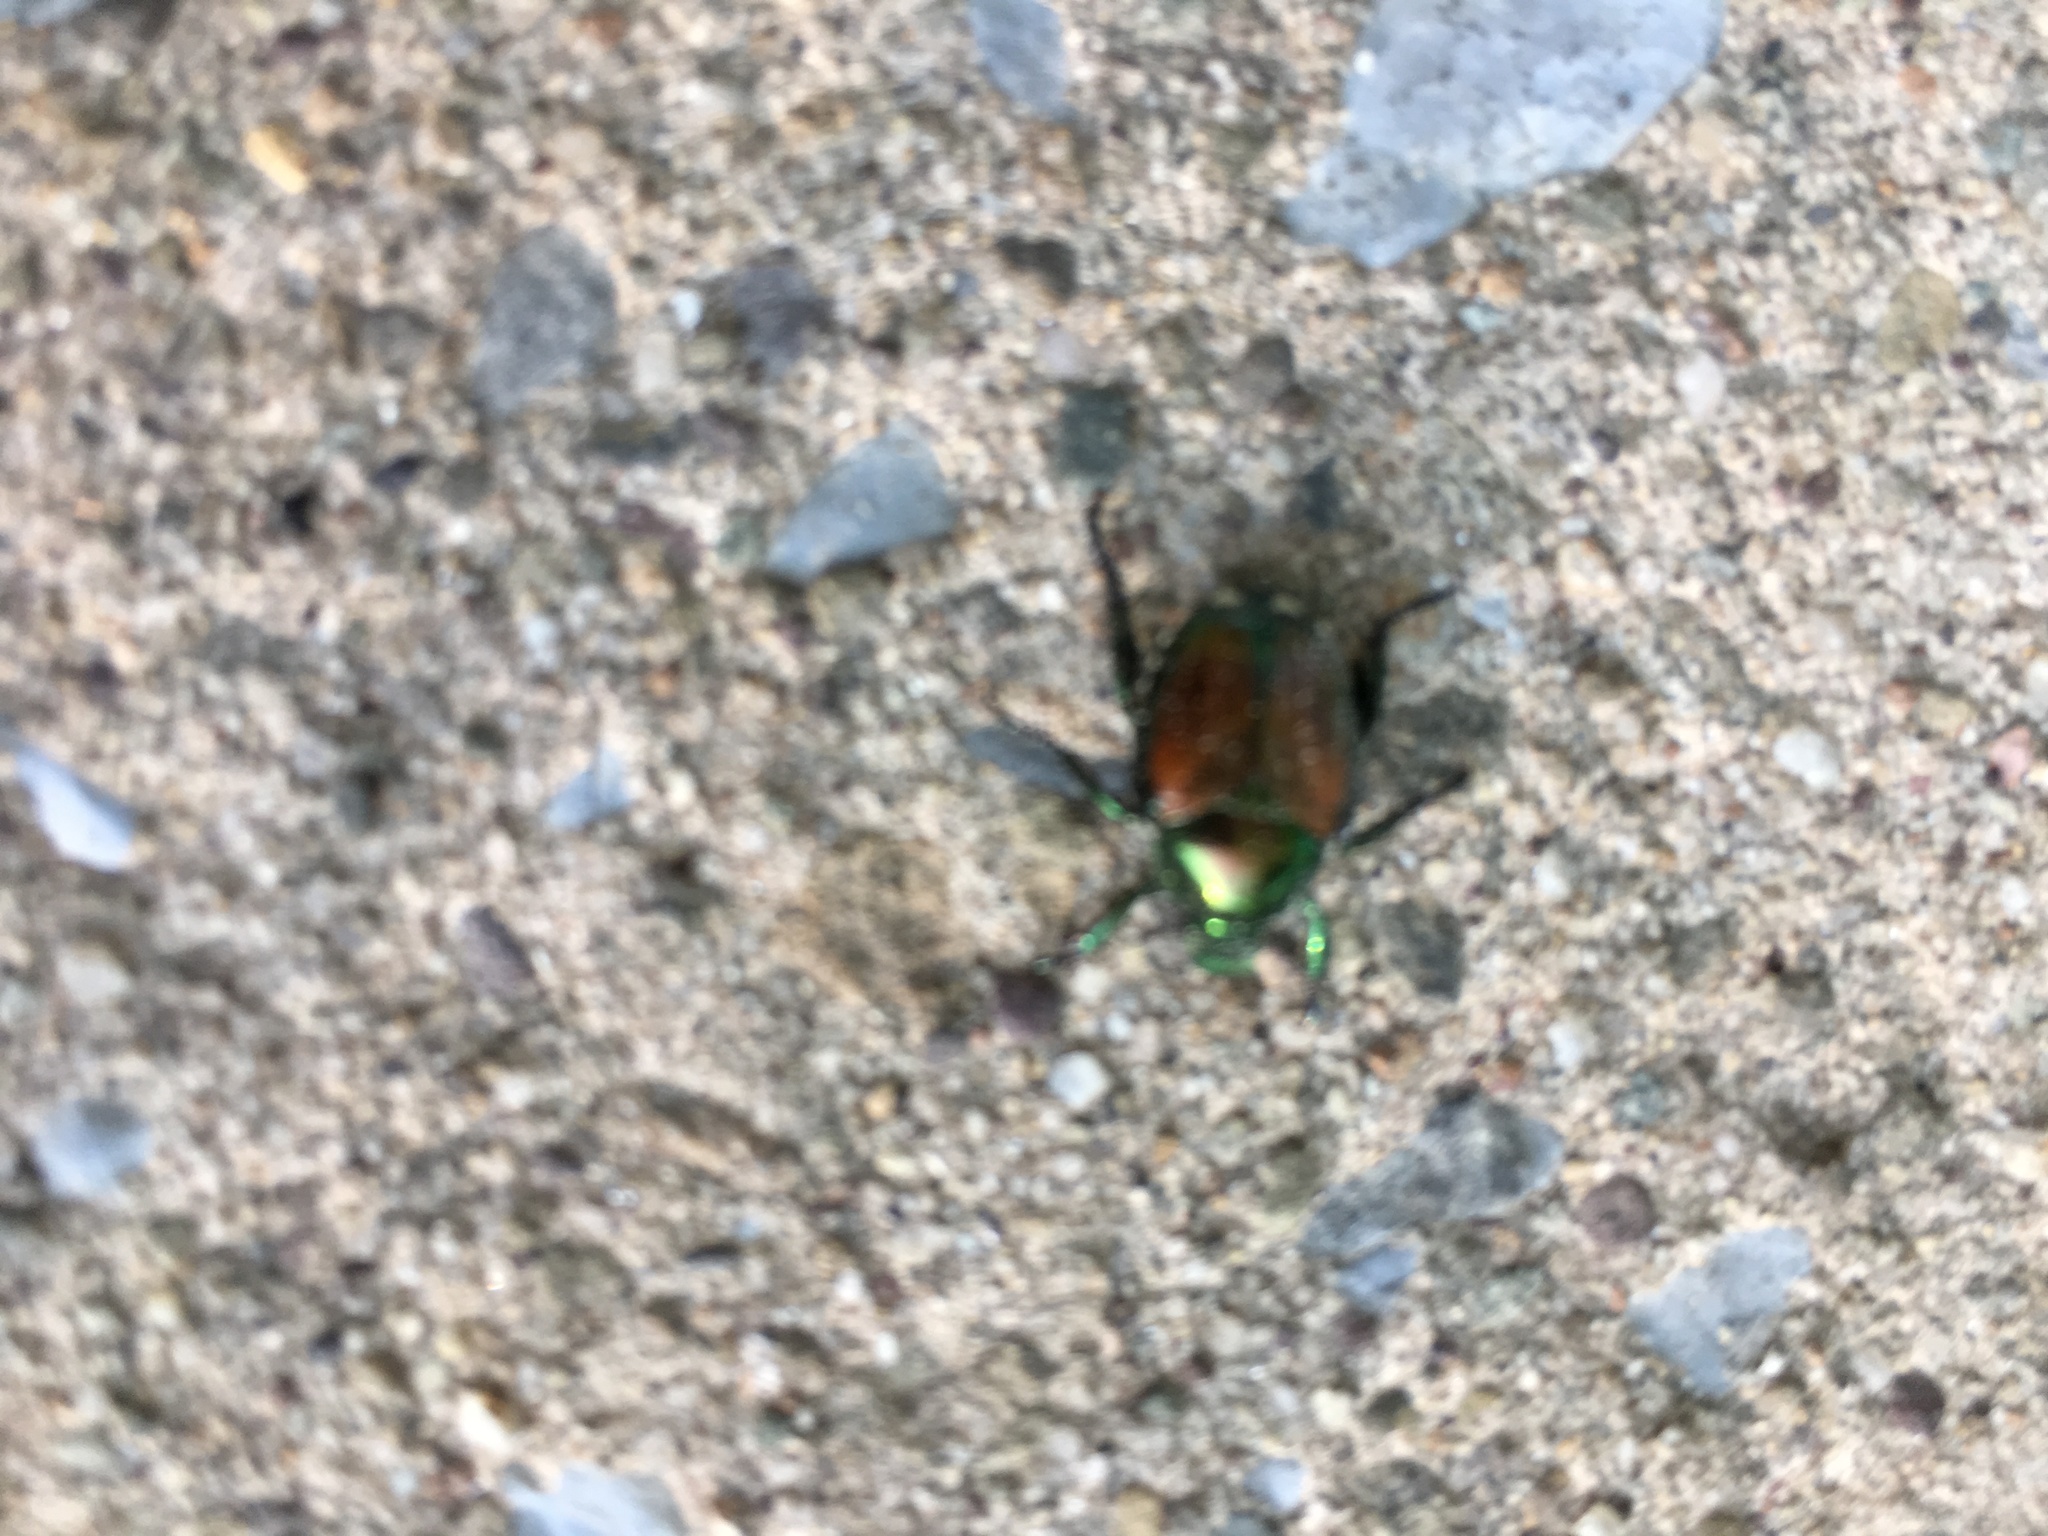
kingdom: Animalia
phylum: Arthropoda
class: Insecta
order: Coleoptera
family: Scarabaeidae
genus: Popillia
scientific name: Popillia japonica
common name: Japanese beetle
